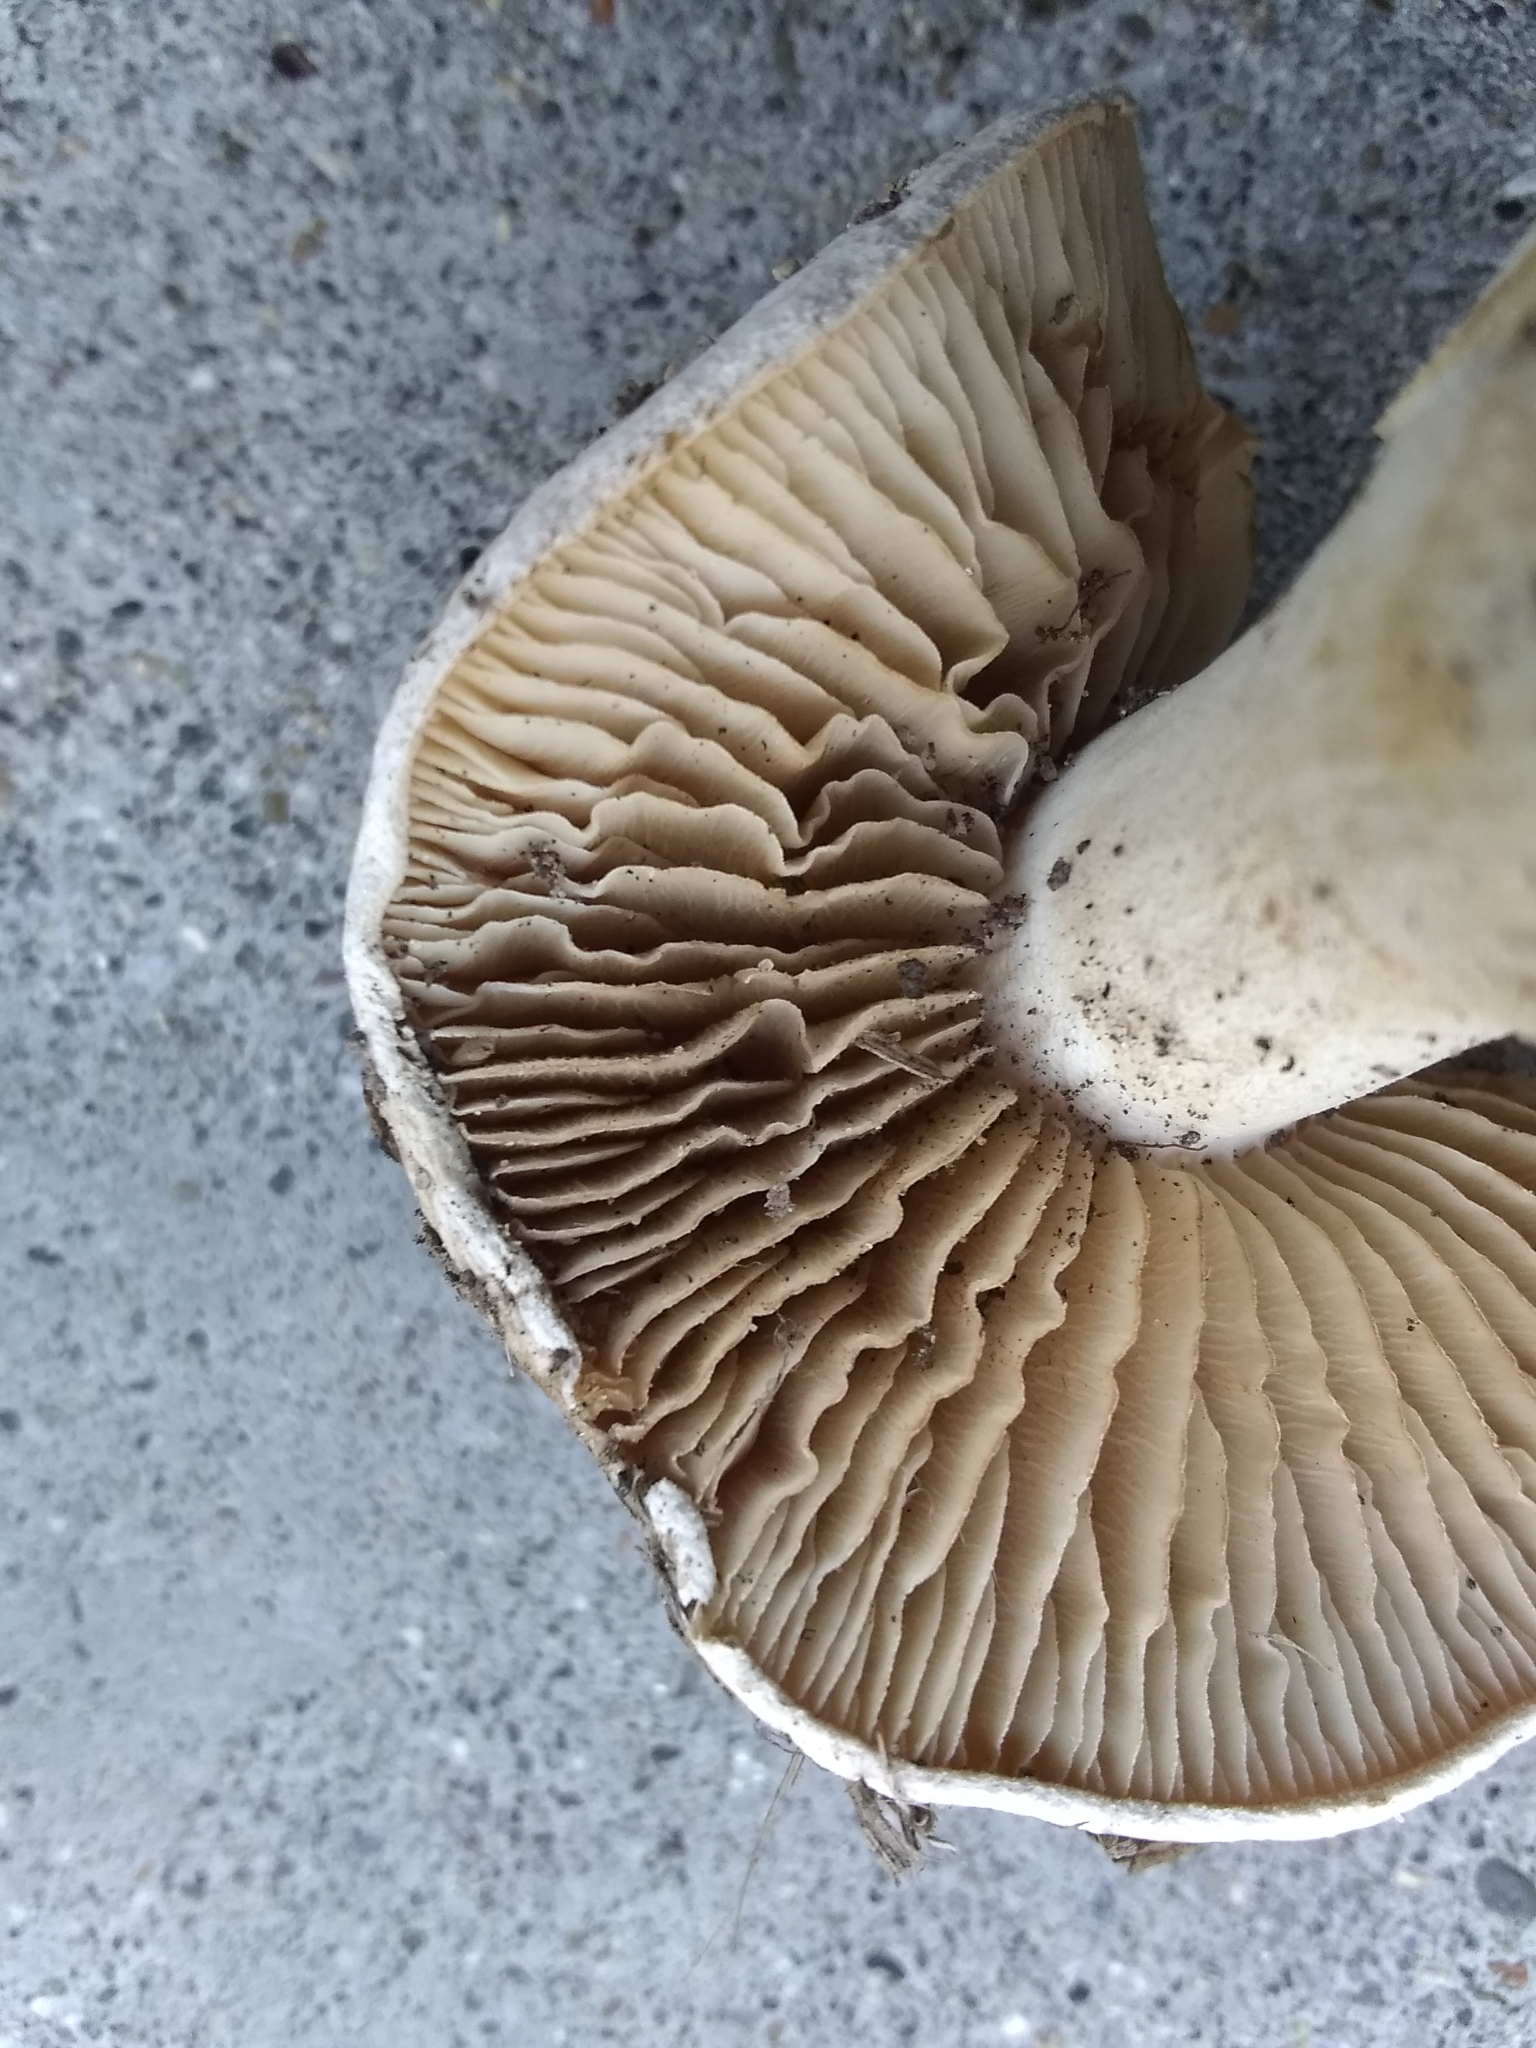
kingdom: Fungi
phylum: Basidiomycota
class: Agaricomycetes
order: Agaricales
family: Hymenogastraceae
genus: Hebeloma
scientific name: Hebeloma crustuliniforme
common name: Poison pie
